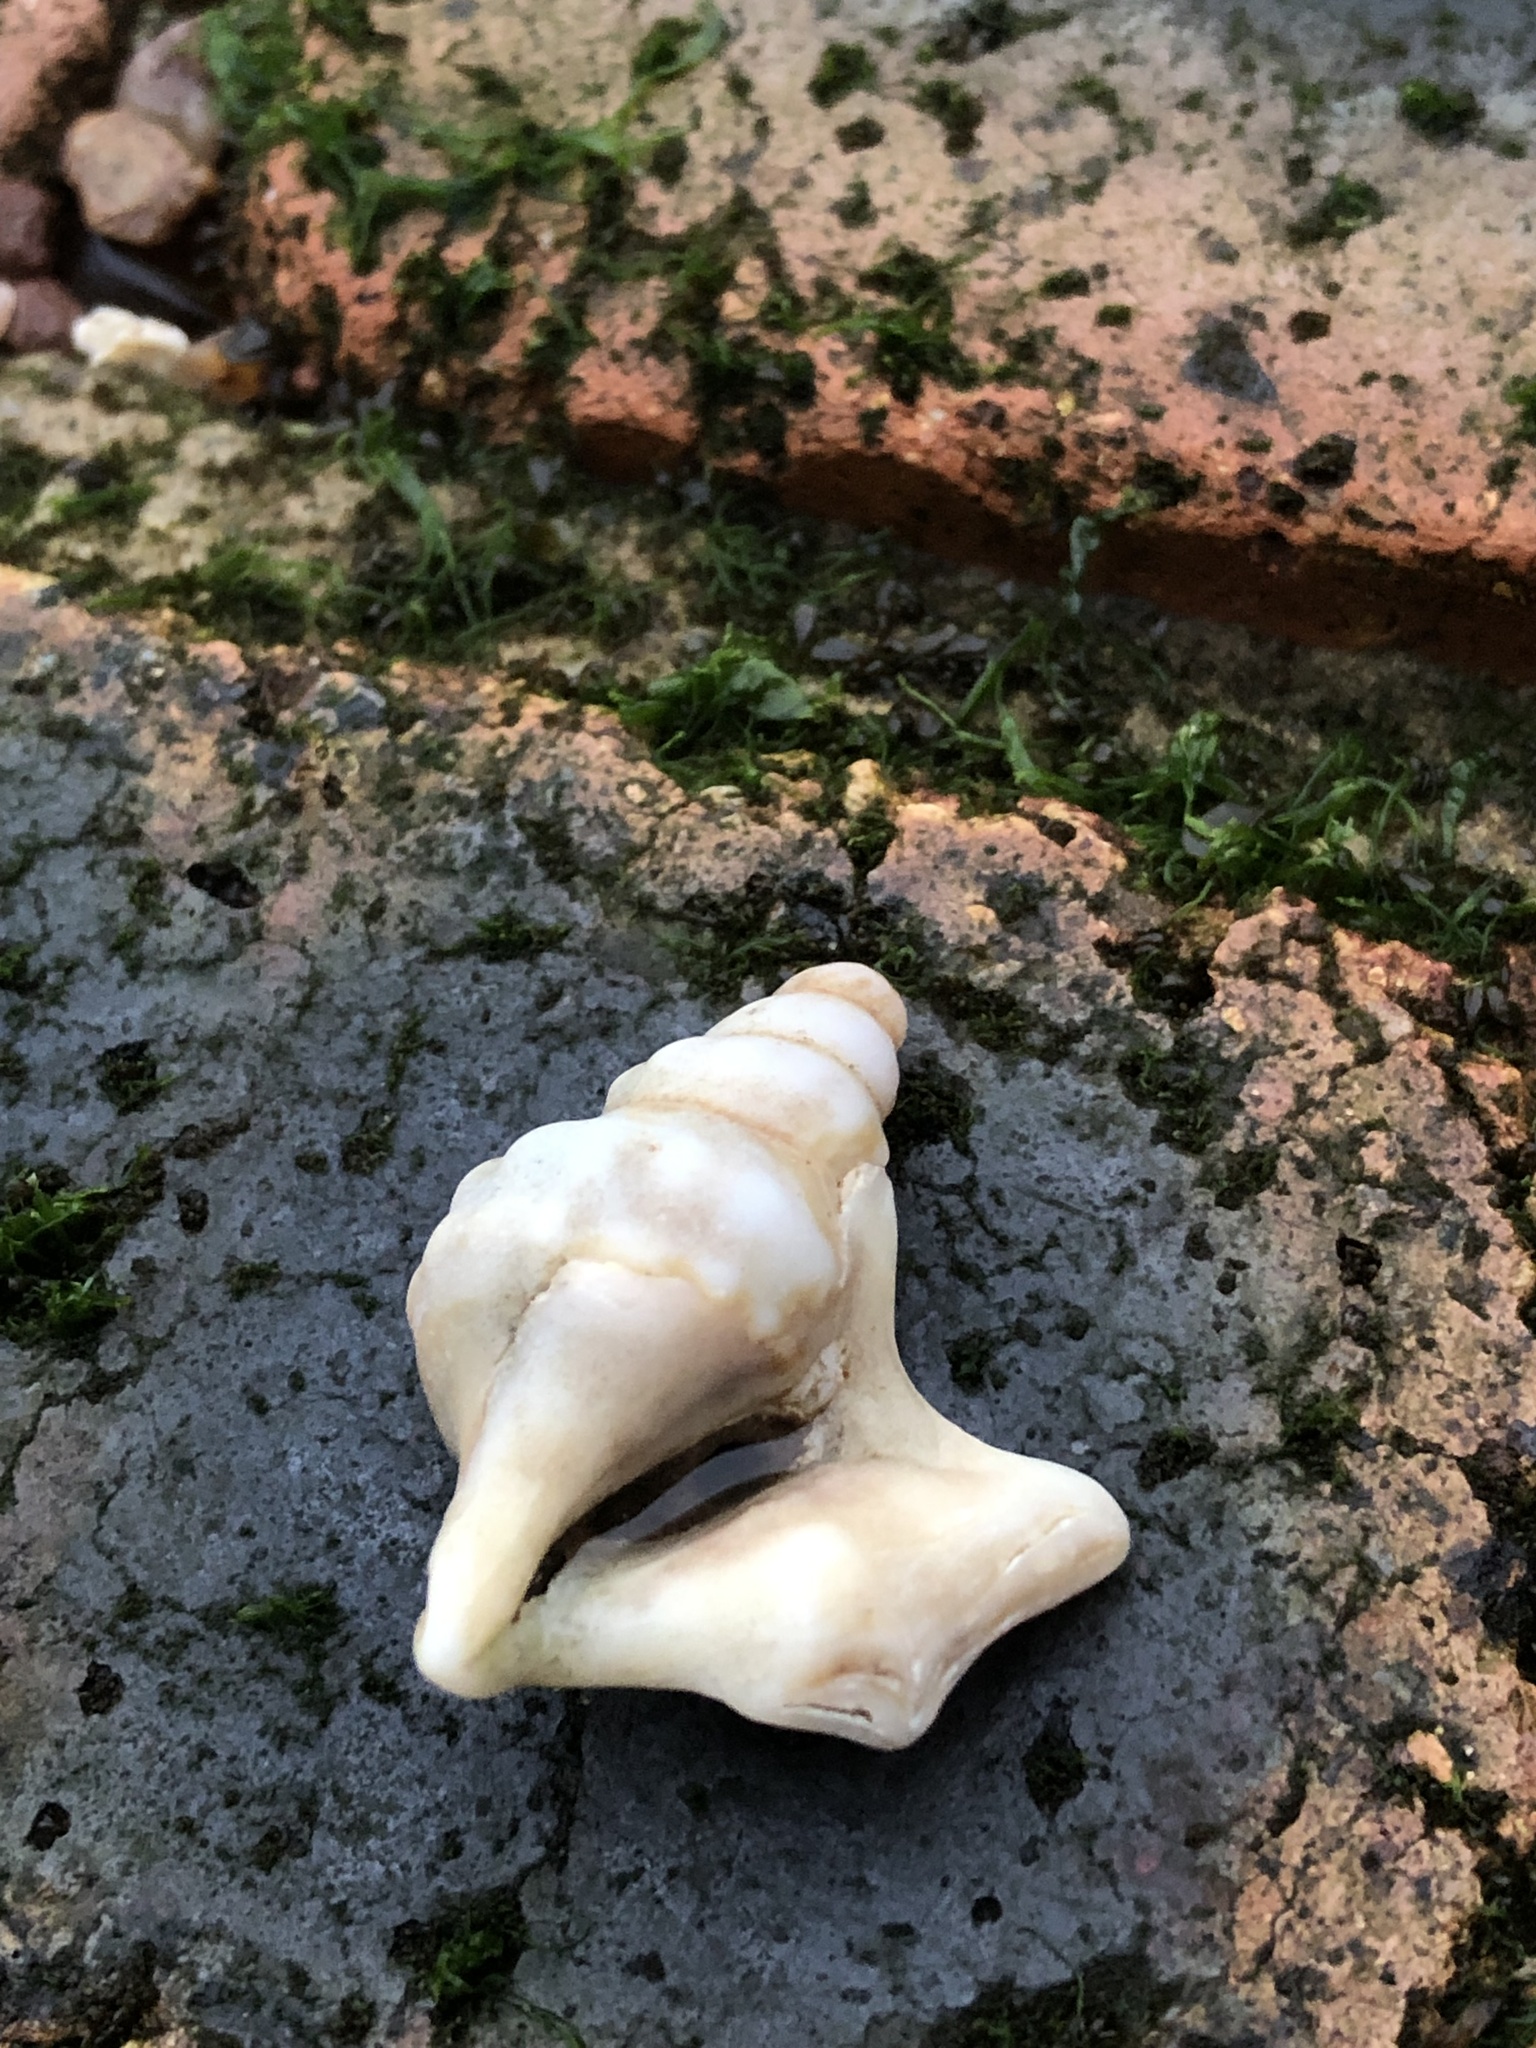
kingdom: Animalia
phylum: Mollusca
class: Gastropoda
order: Littorinimorpha
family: Aporrhaidae
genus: Aporrhais
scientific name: Aporrhais pespelecani
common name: Common pelican’s foot
